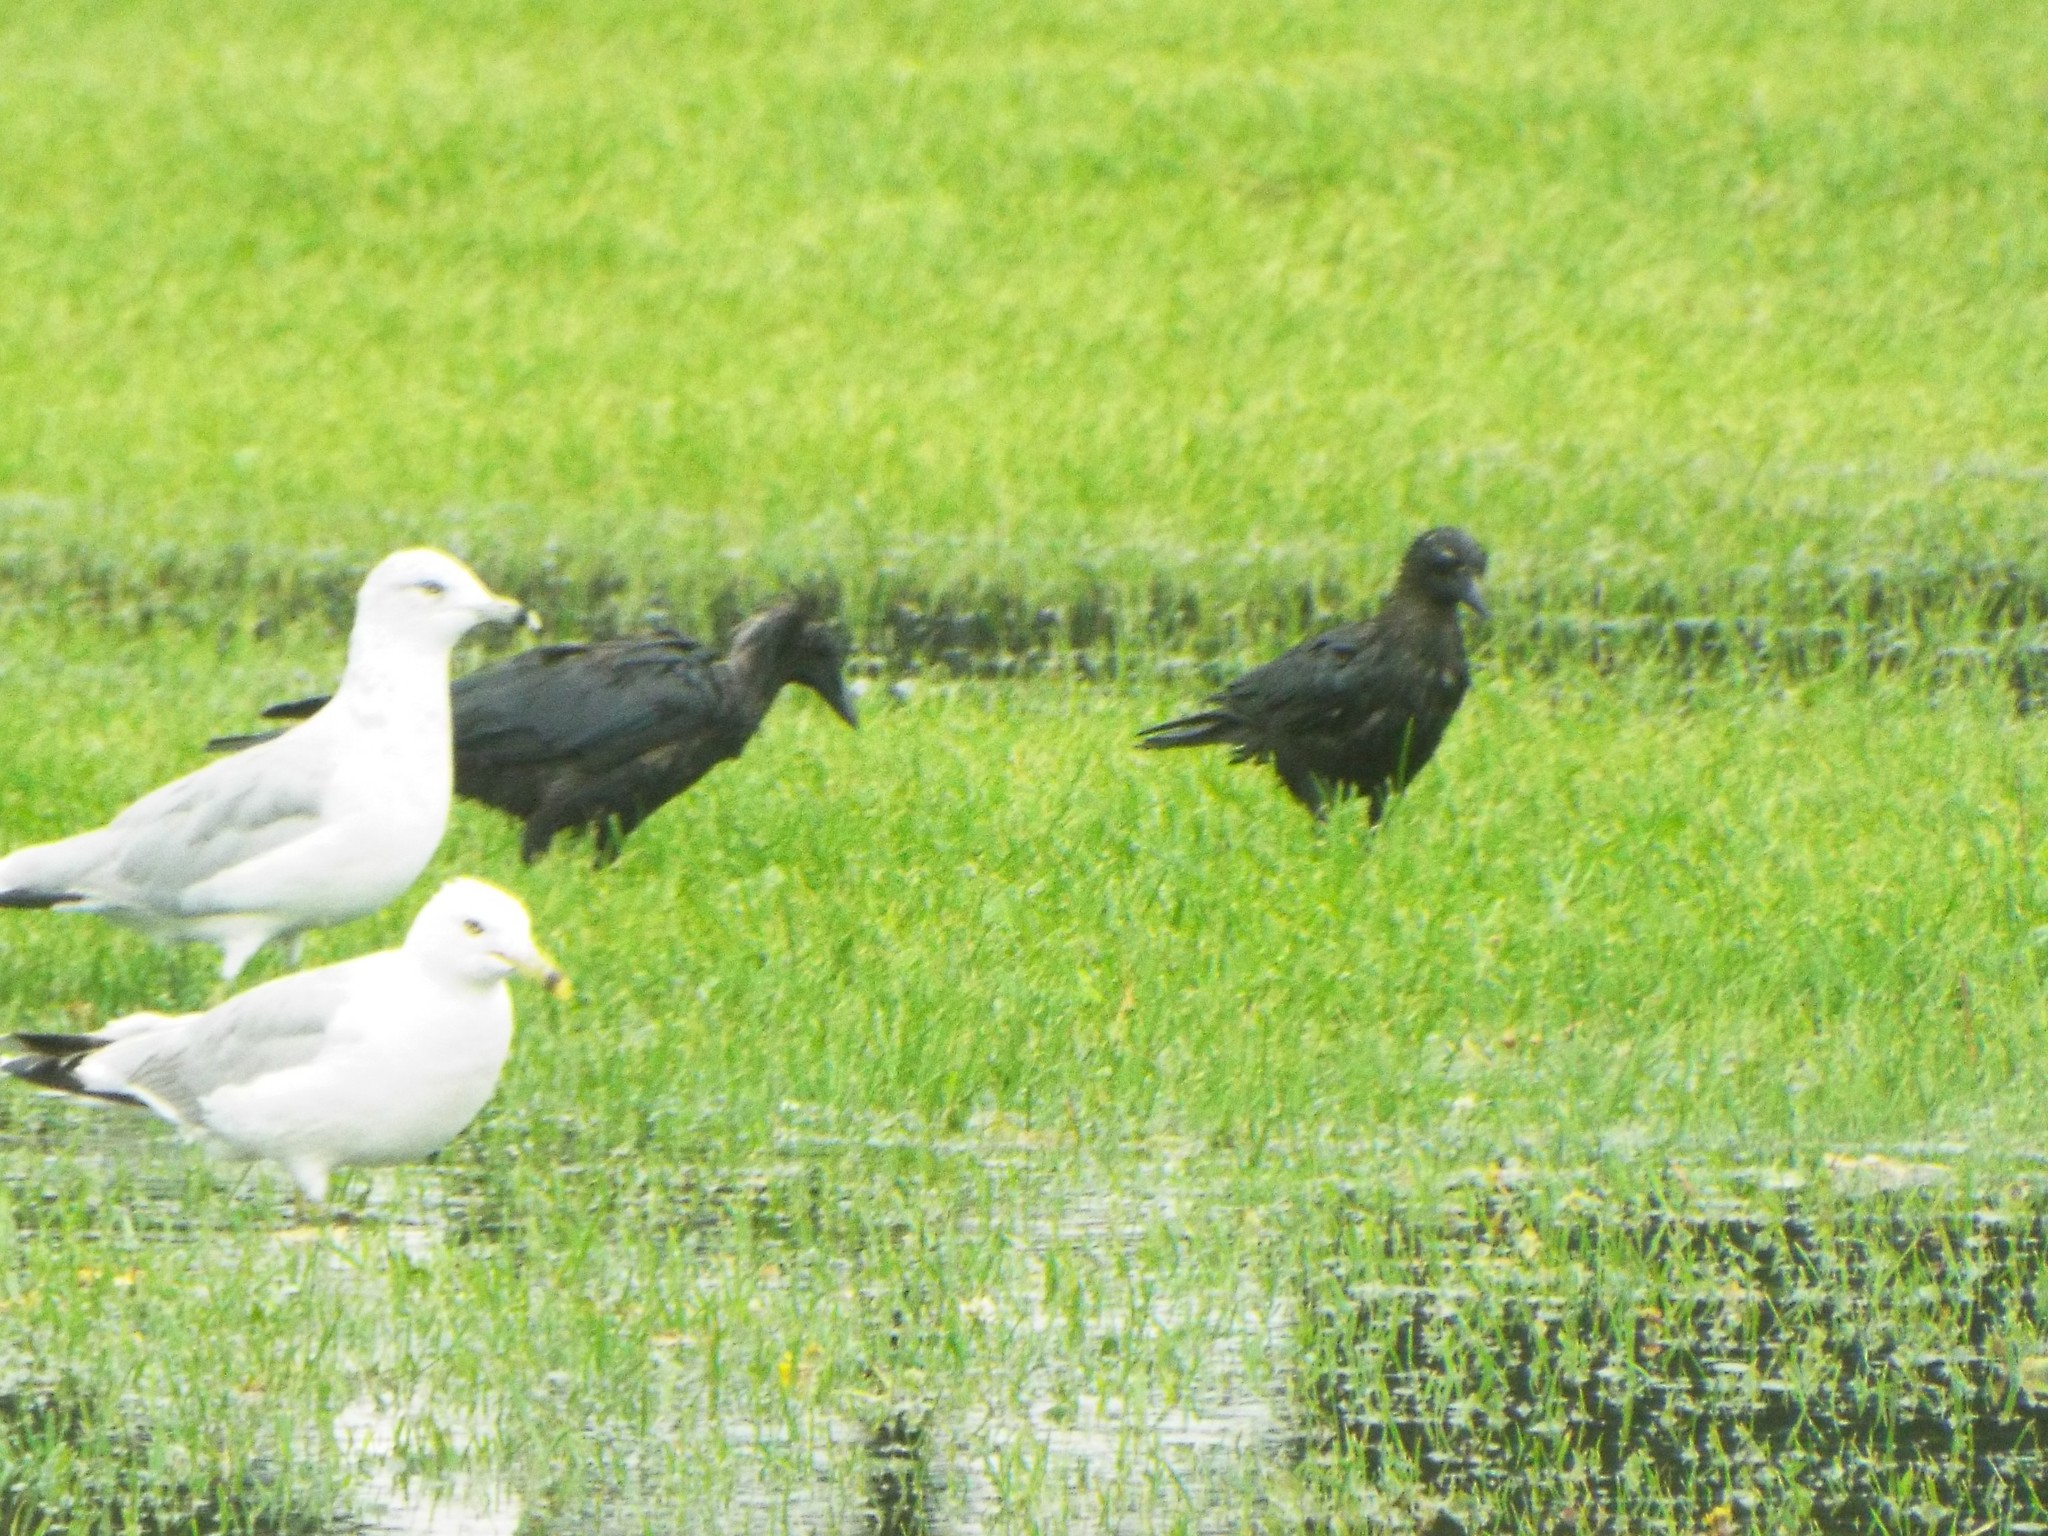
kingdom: Animalia
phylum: Chordata
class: Aves
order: Passeriformes
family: Corvidae
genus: Corvus
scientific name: Corvus brachyrhynchos
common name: American crow
